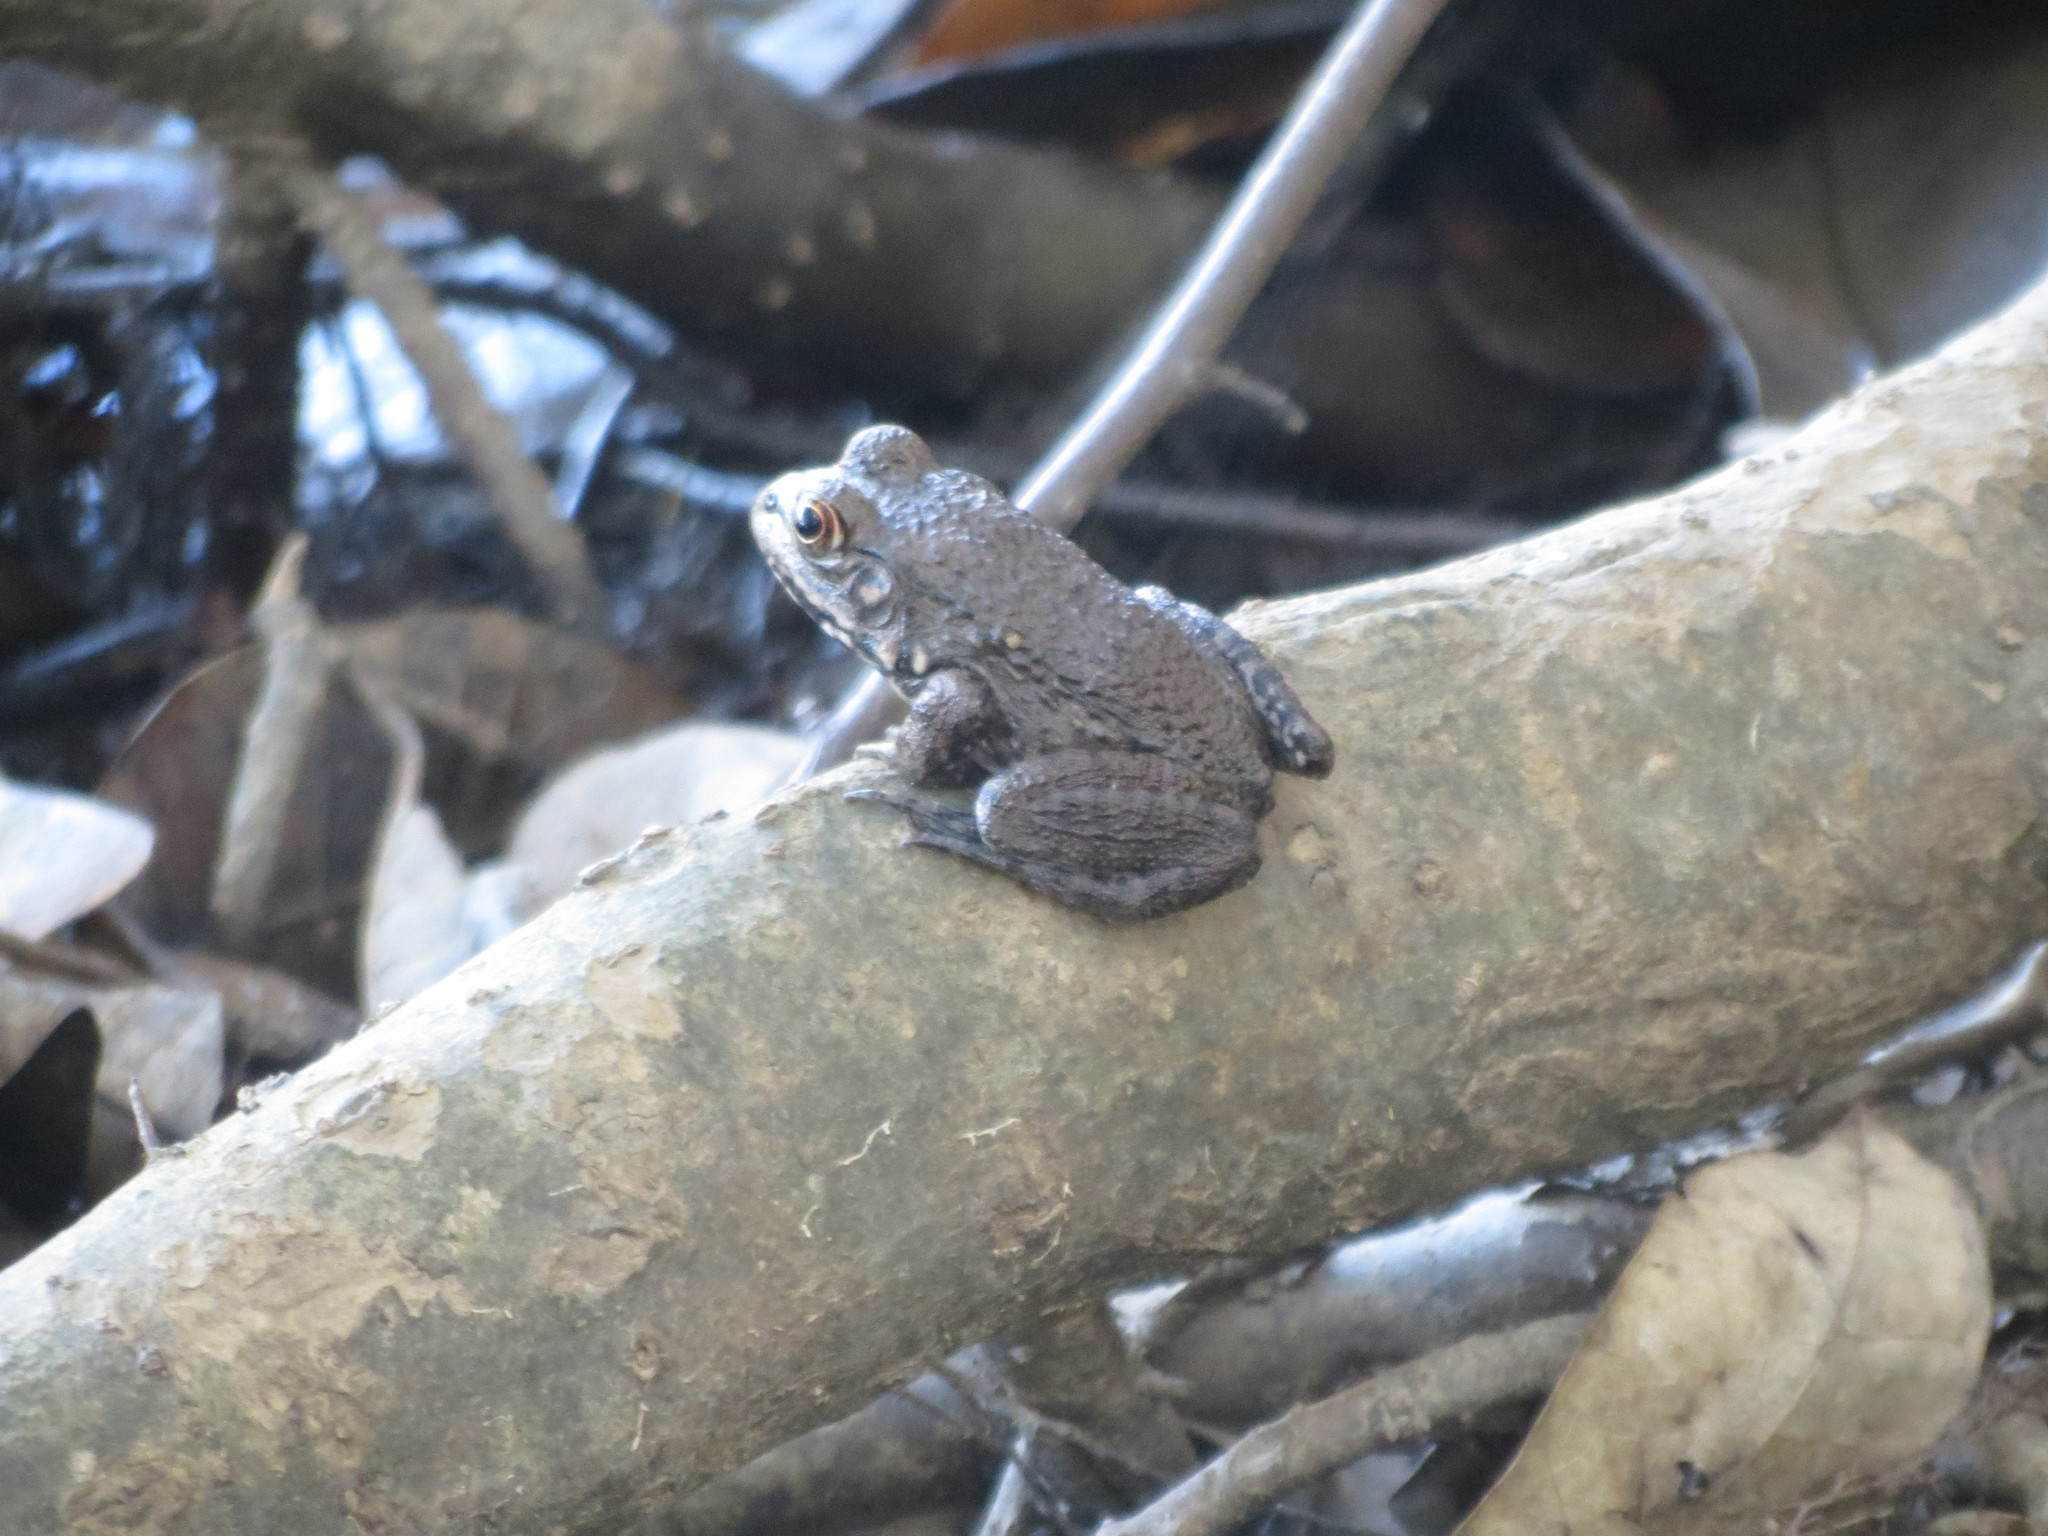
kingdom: Animalia
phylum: Chordata
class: Amphibia
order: Anura
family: Ranidae
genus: Lithobates
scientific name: Lithobates heckscheri
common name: River frog
